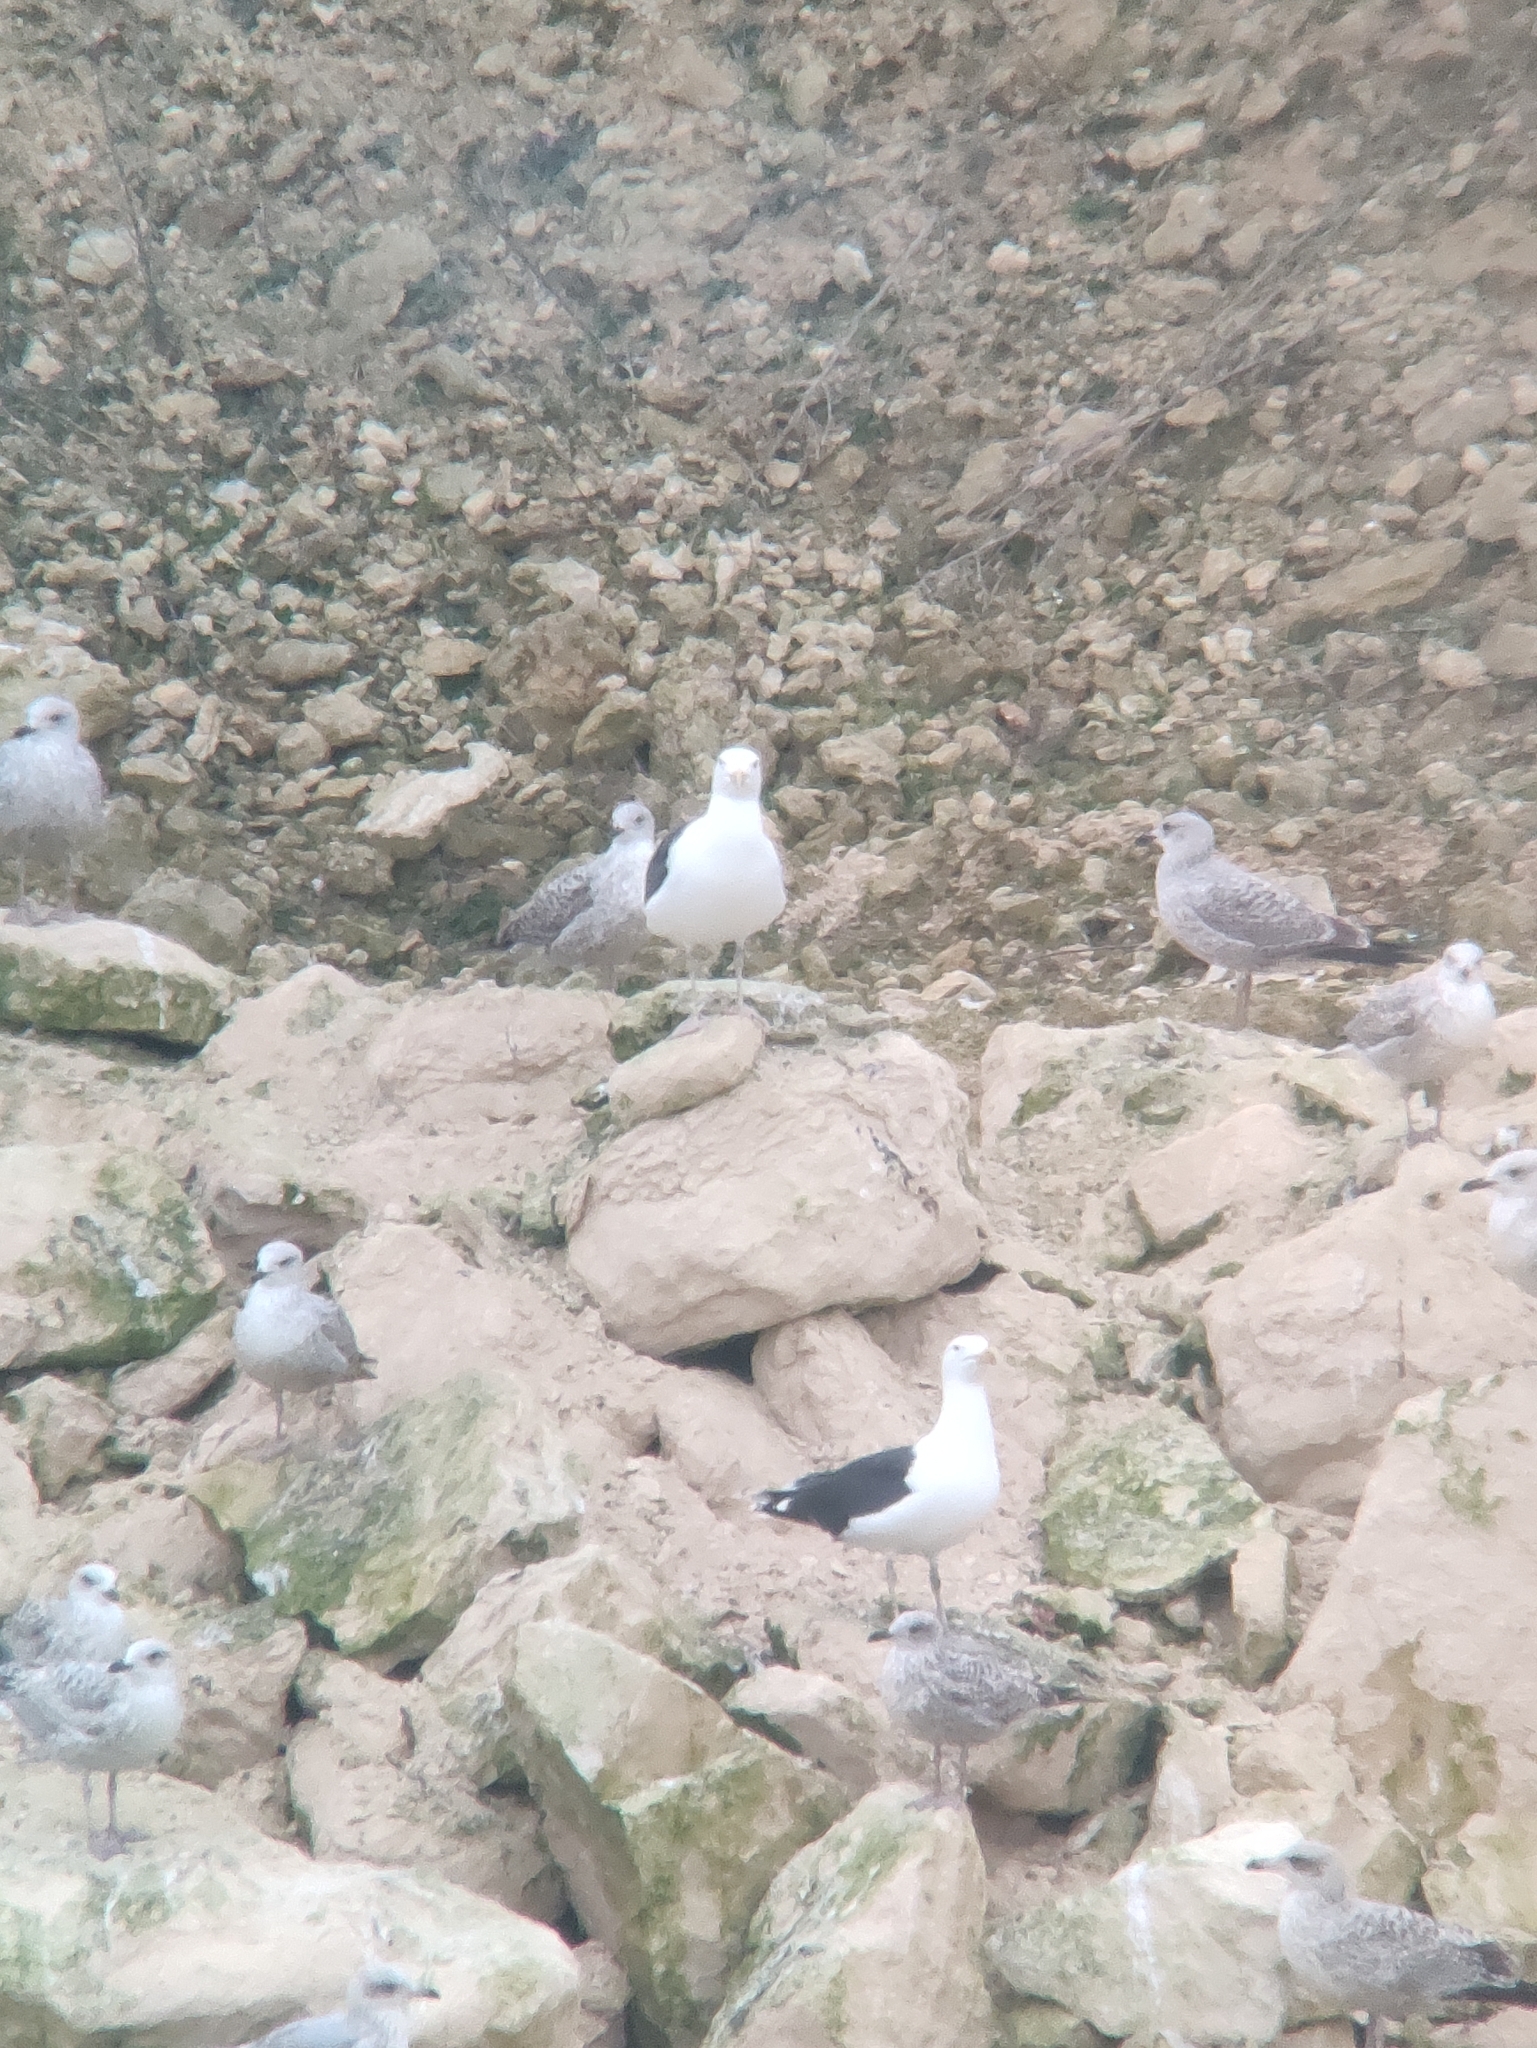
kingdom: Animalia
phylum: Chordata
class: Aves
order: Charadriiformes
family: Laridae
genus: Larus
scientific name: Larus marinus
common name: Great black-backed gull
